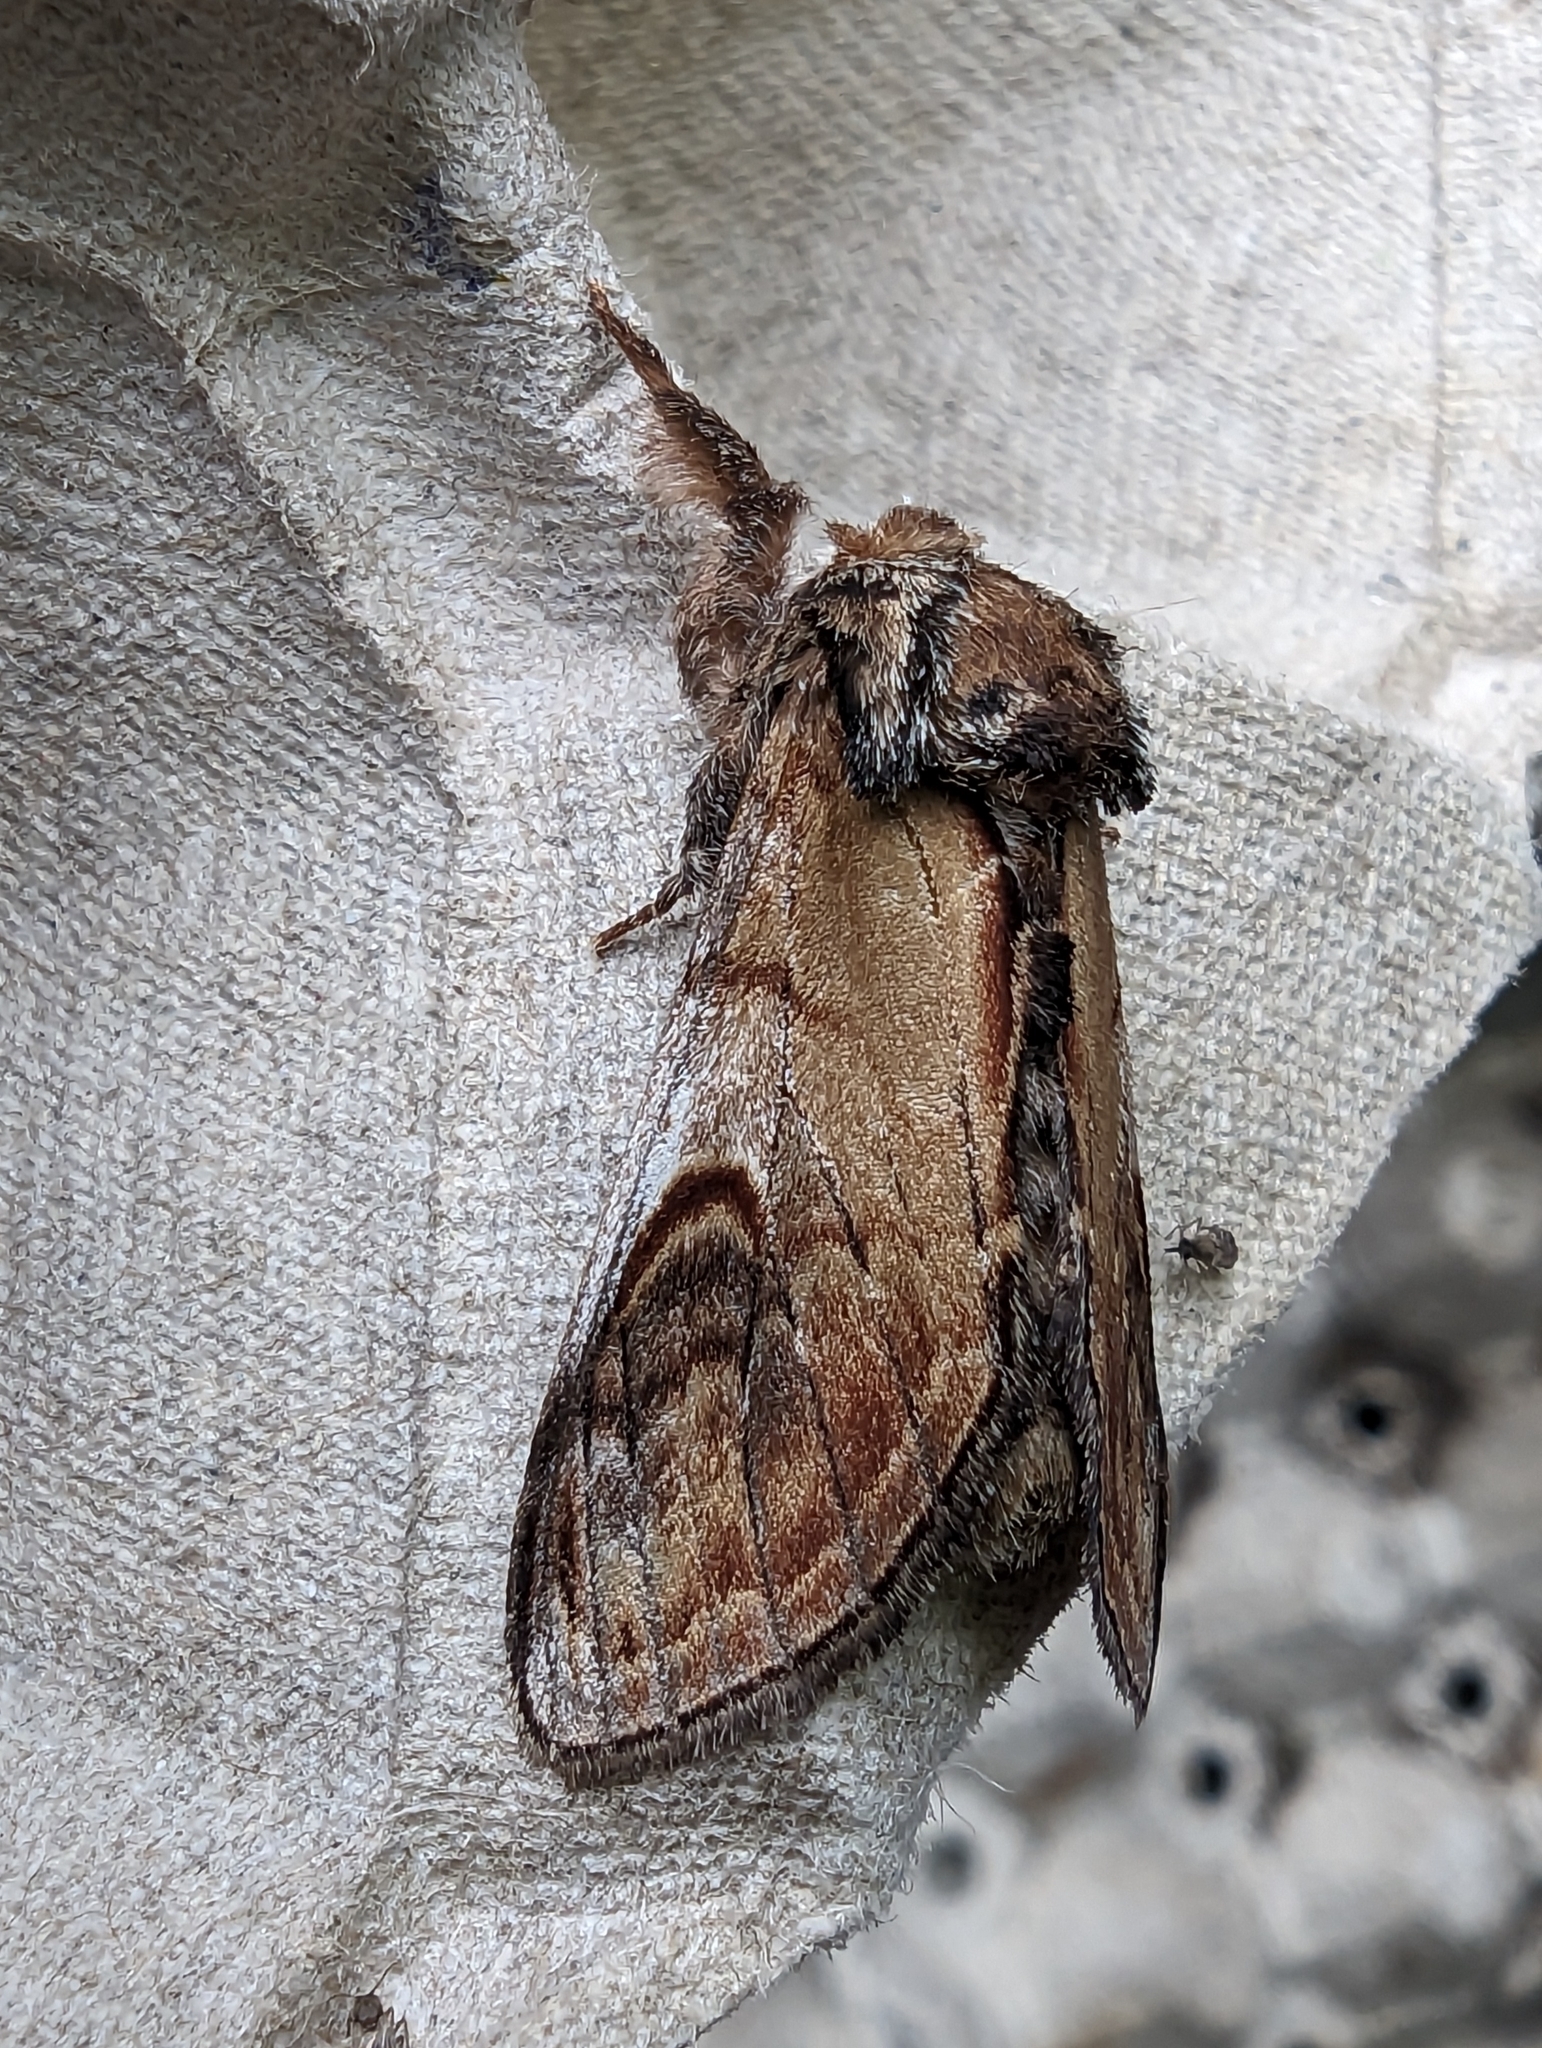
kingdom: Animalia
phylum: Arthropoda
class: Insecta
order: Lepidoptera
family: Notodontidae
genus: Notodonta
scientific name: Notodonta ziczac
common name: Pebble prominent
